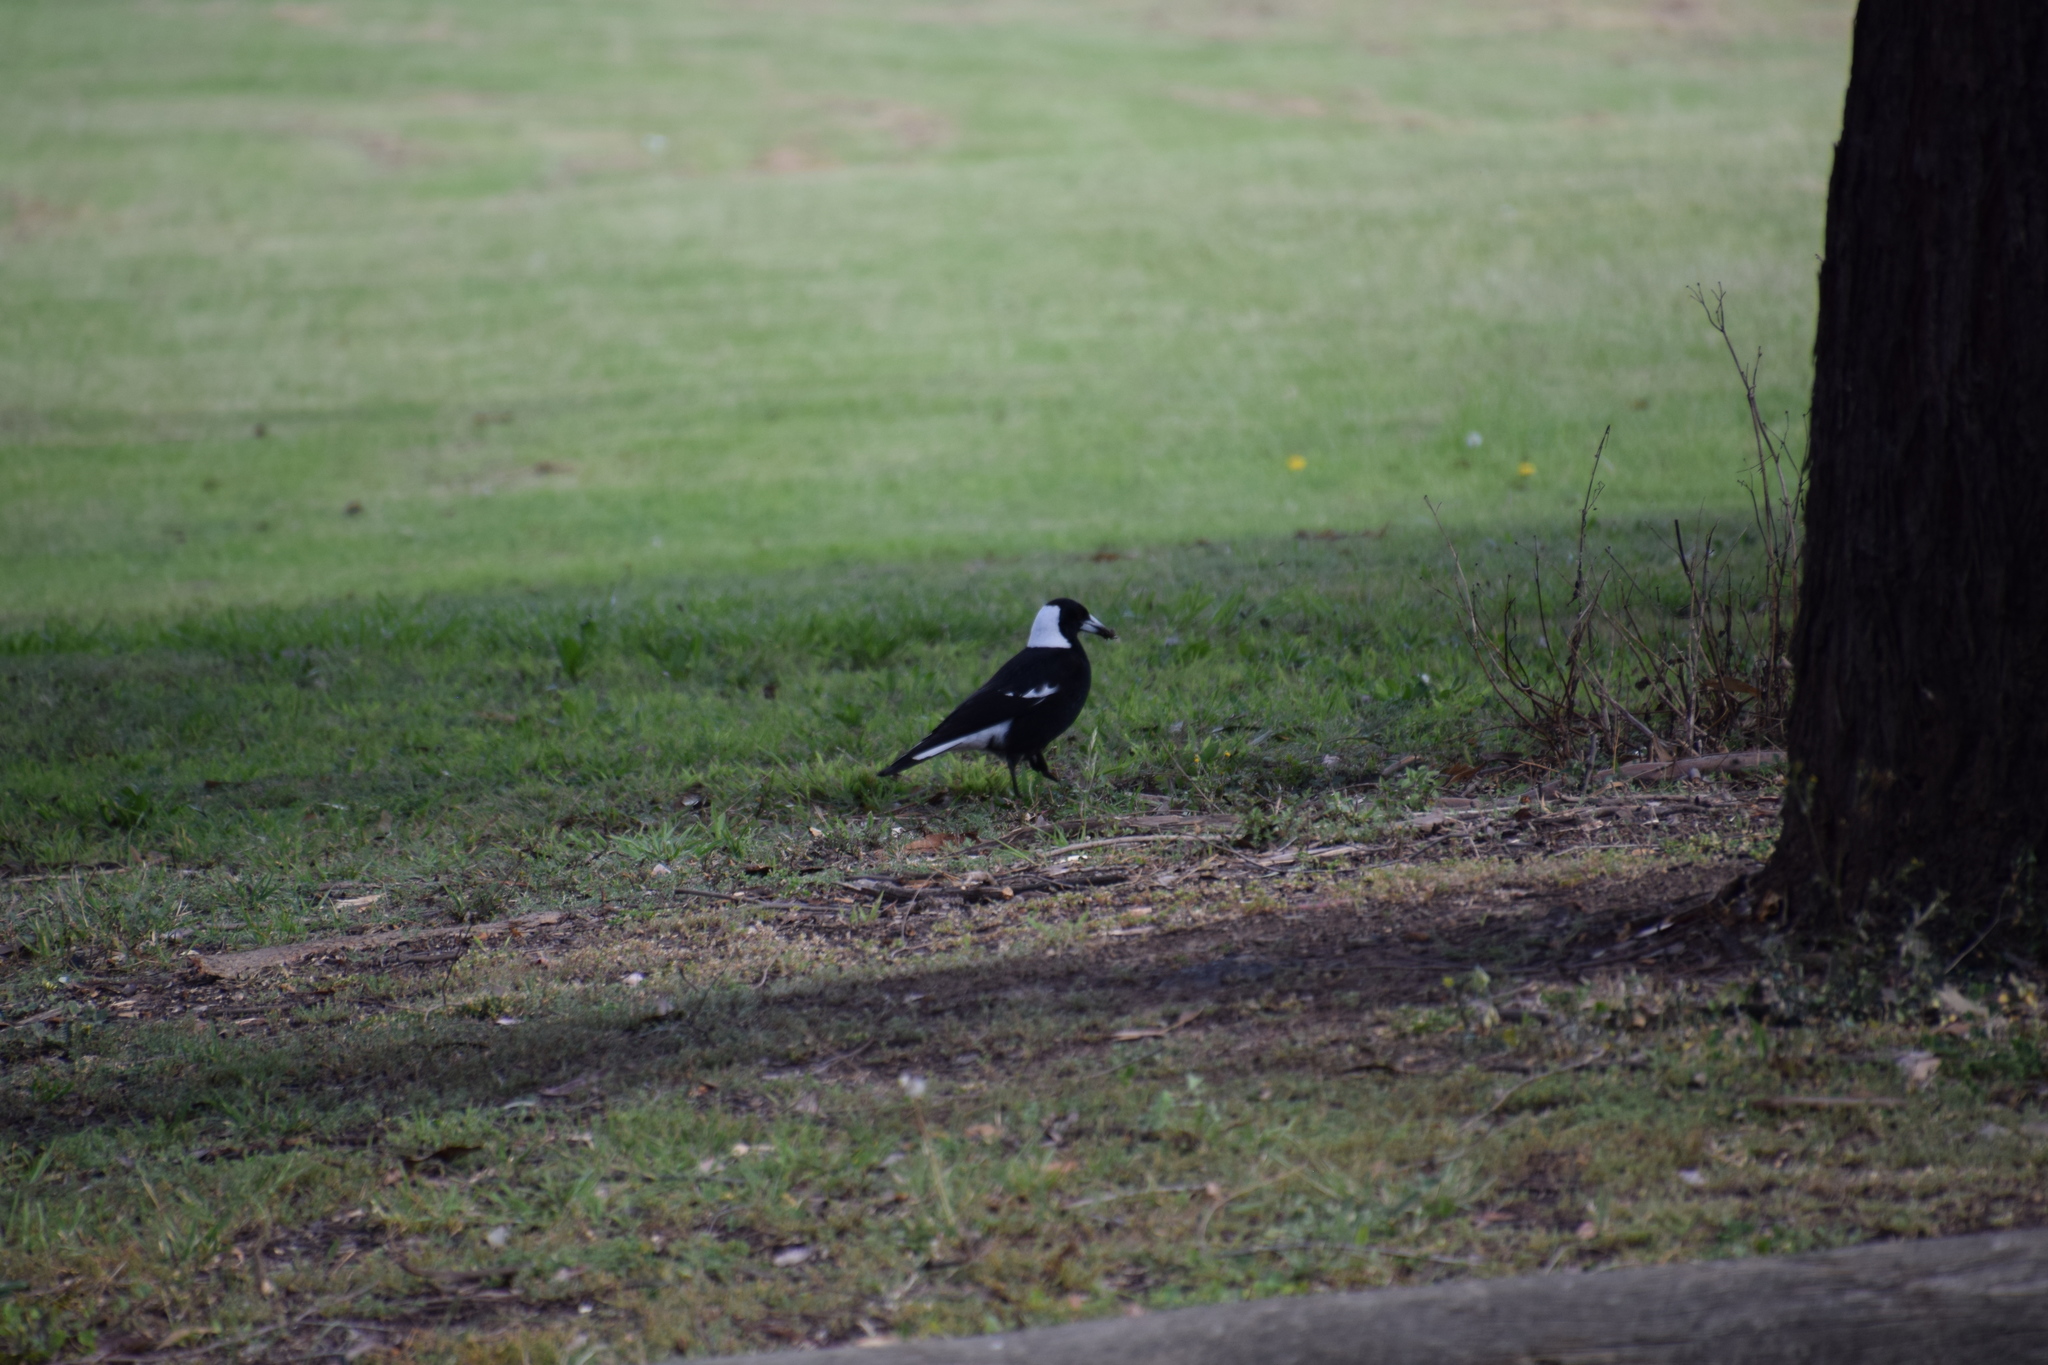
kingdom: Animalia
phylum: Chordata
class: Aves
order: Passeriformes
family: Cracticidae
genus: Gymnorhina
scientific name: Gymnorhina tibicen
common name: Australian magpie
